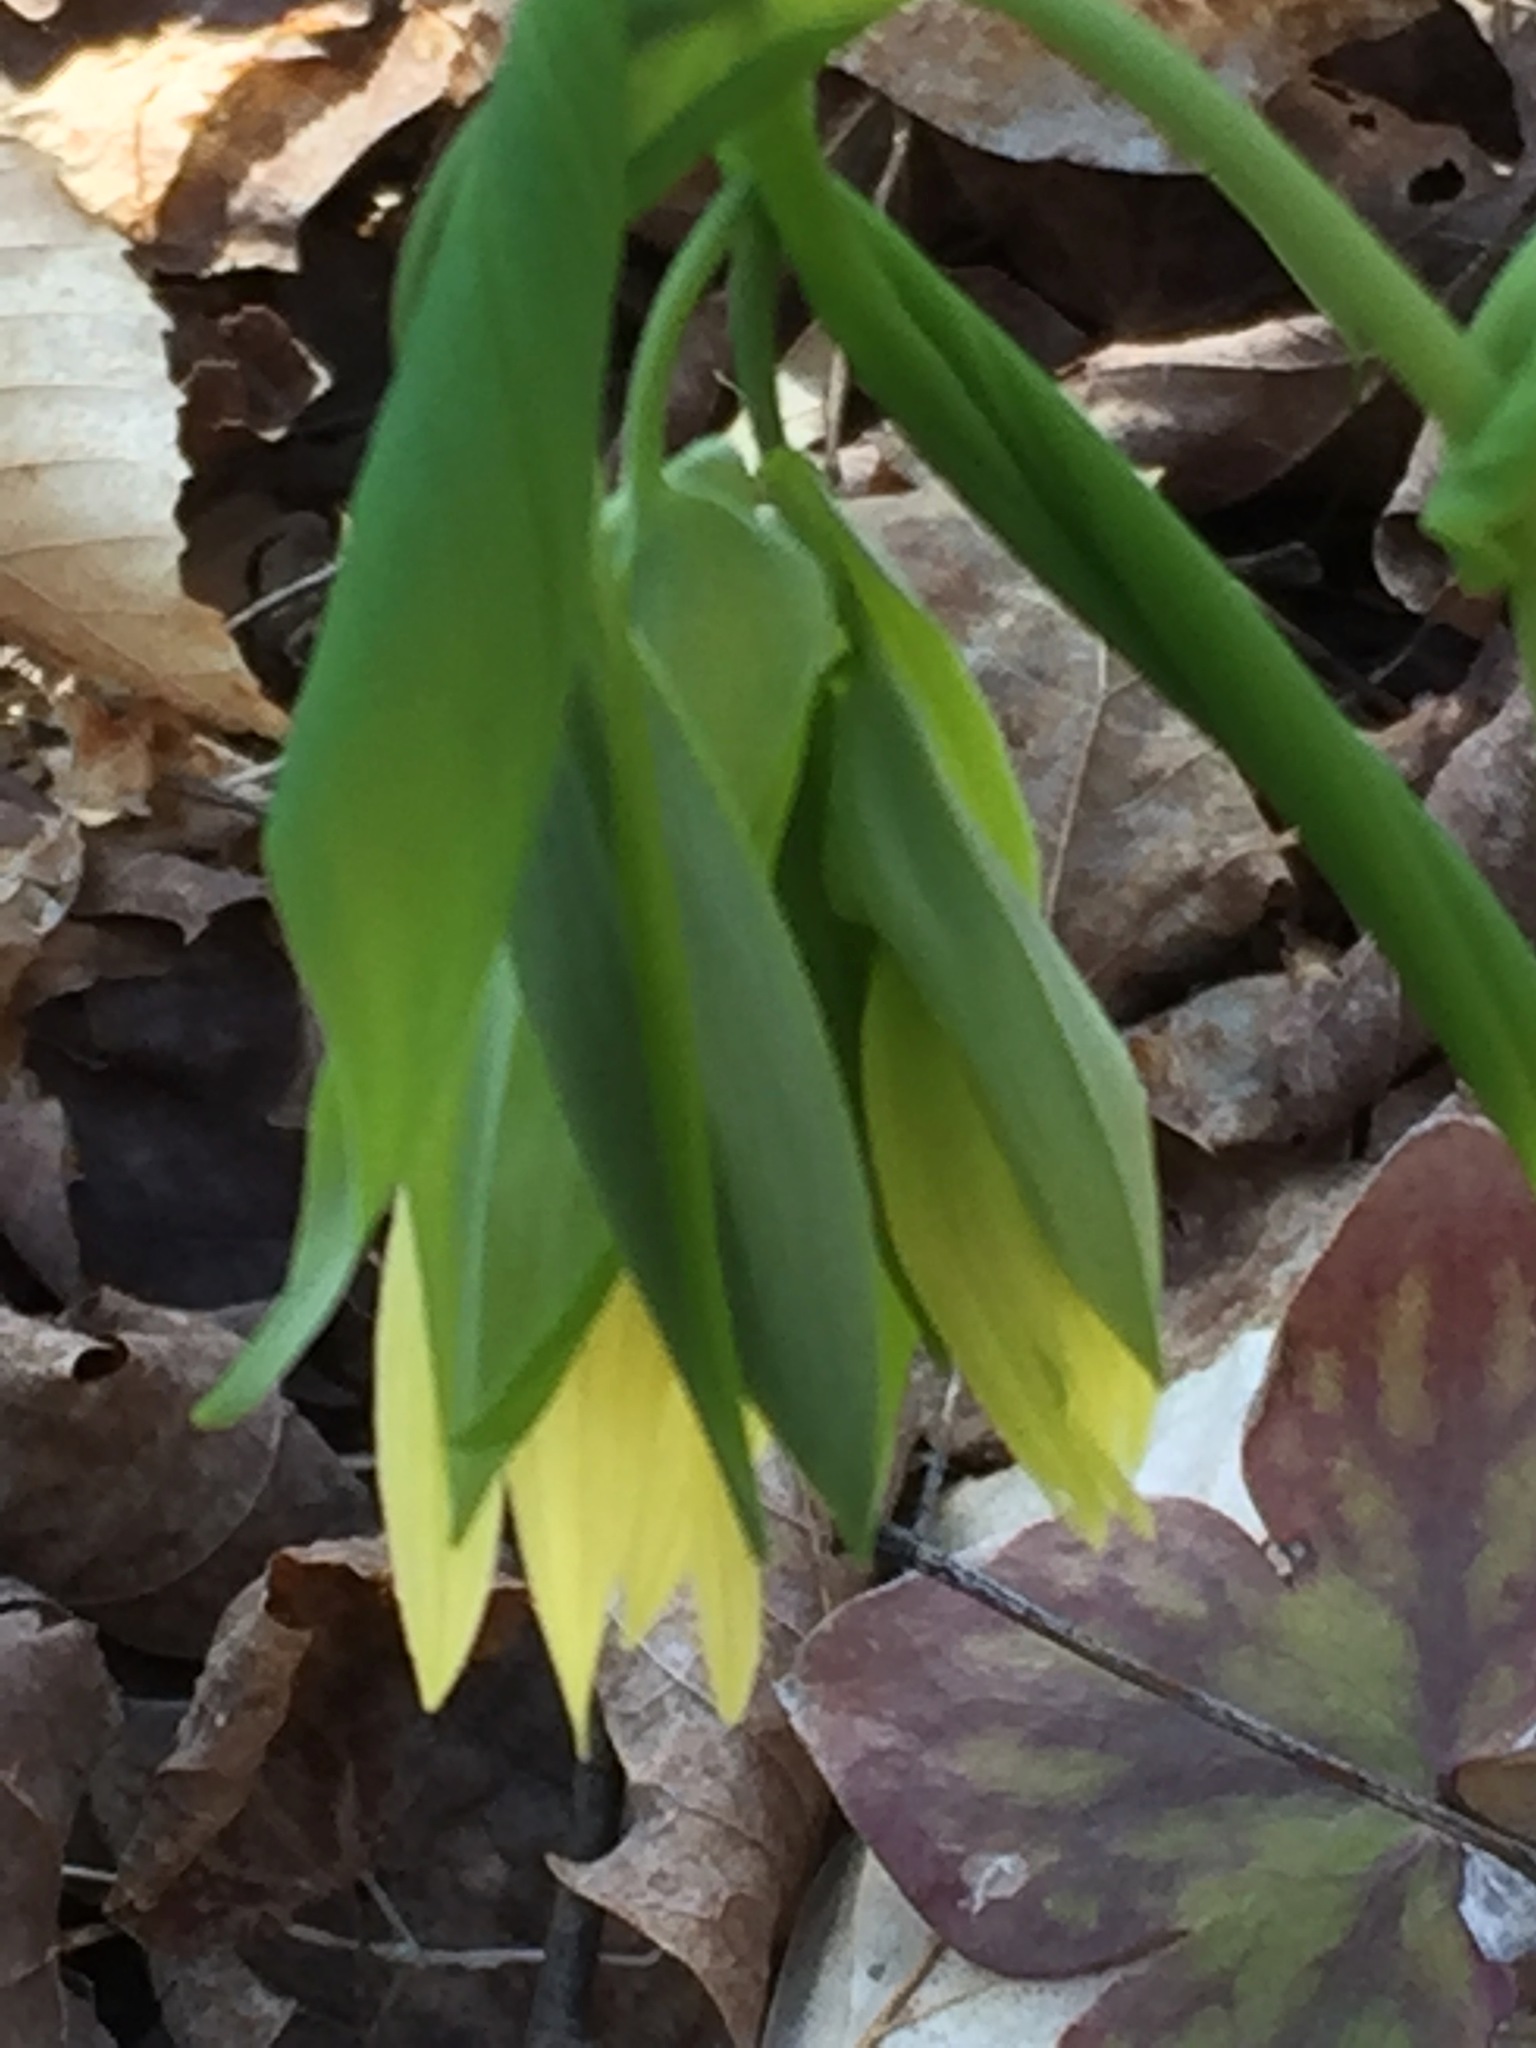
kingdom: Plantae
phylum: Tracheophyta
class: Liliopsida
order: Liliales
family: Colchicaceae
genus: Uvularia
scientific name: Uvularia grandiflora
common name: Bellwort
